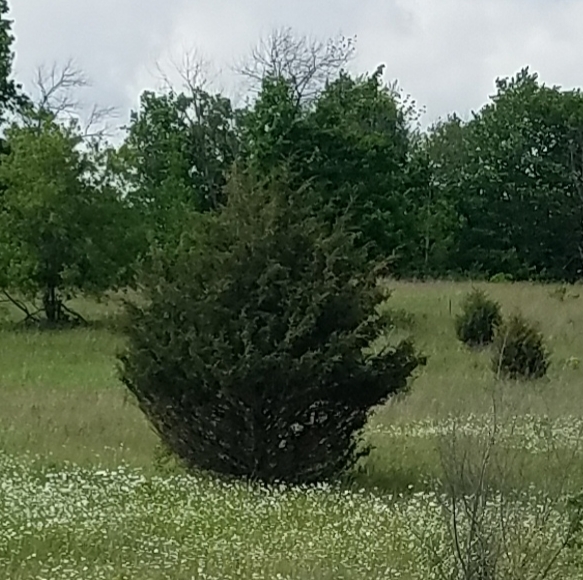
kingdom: Plantae
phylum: Tracheophyta
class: Pinopsida
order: Pinales
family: Cupressaceae
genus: Juniperus
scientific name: Juniperus virginiana
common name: Red juniper
